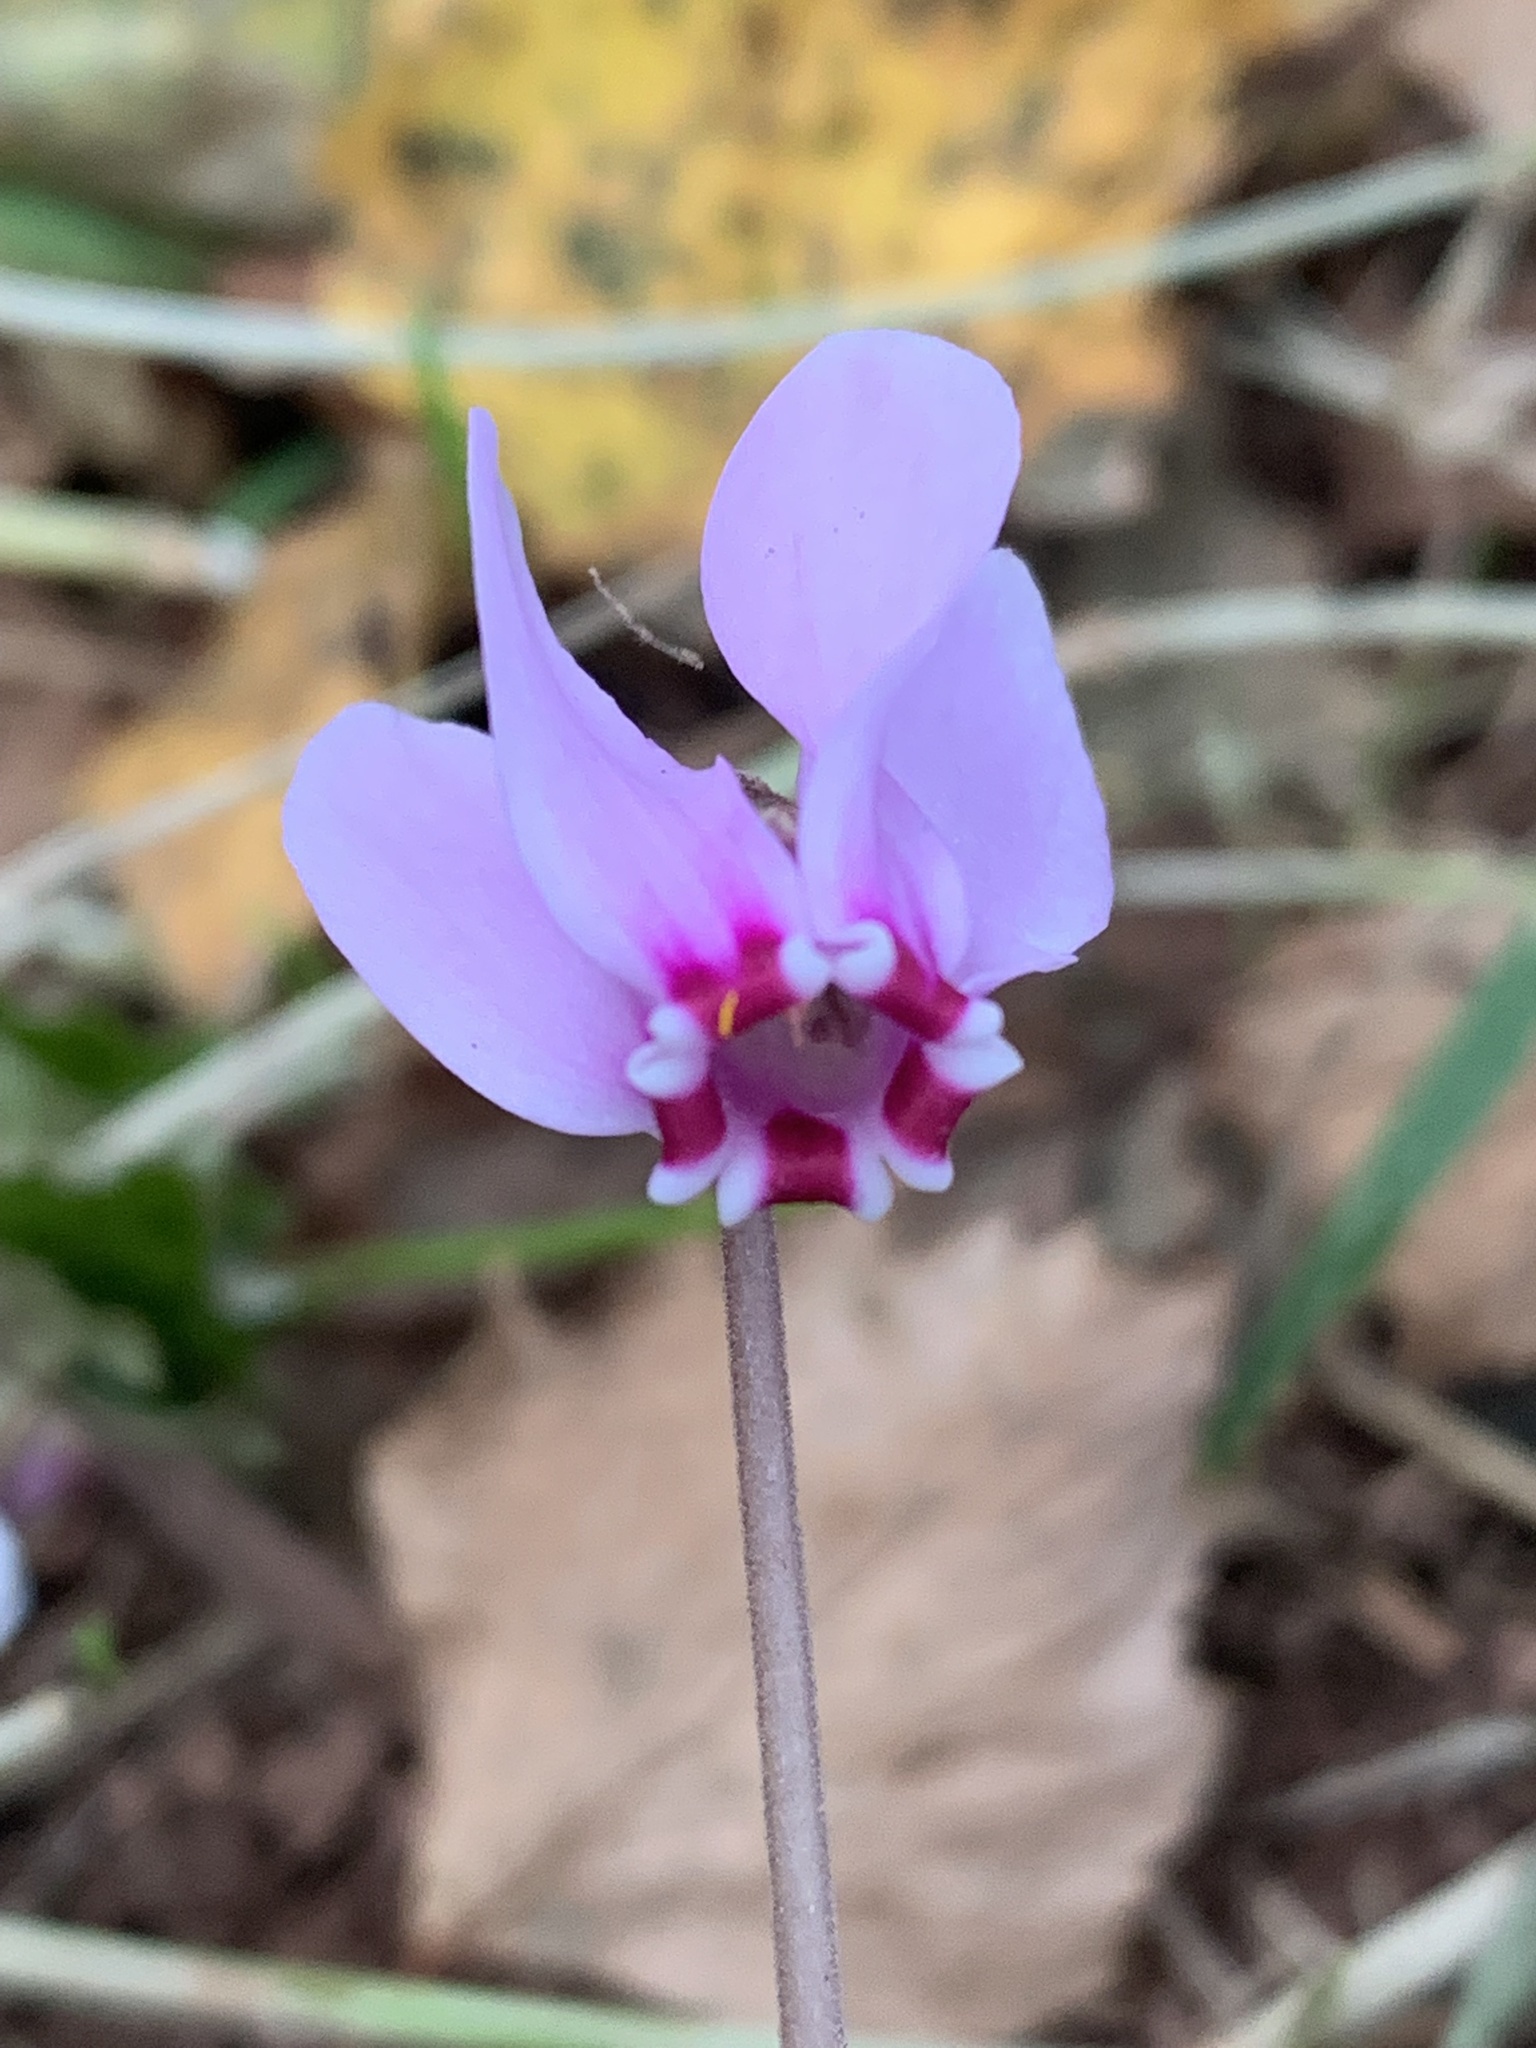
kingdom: Plantae
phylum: Tracheophyta
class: Magnoliopsida
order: Ericales
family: Primulaceae
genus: Cyclamen
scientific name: Cyclamen hederifolium
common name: Sowbread
